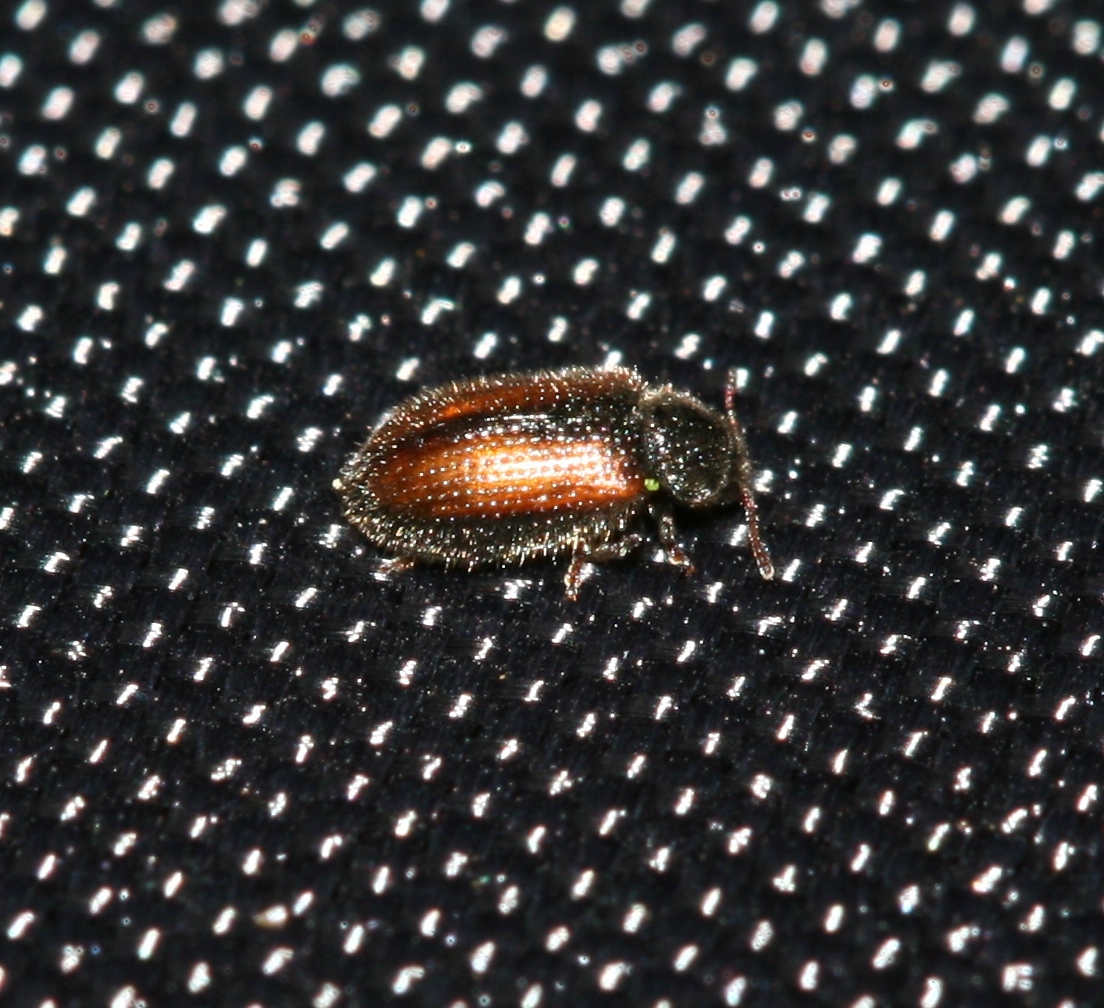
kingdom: Animalia
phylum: Arthropoda
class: Insecta
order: Coleoptera
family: Derodontidae
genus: Laricobius
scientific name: Laricobius erichsonii
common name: Erichson's tooth-necked fungus beetle
